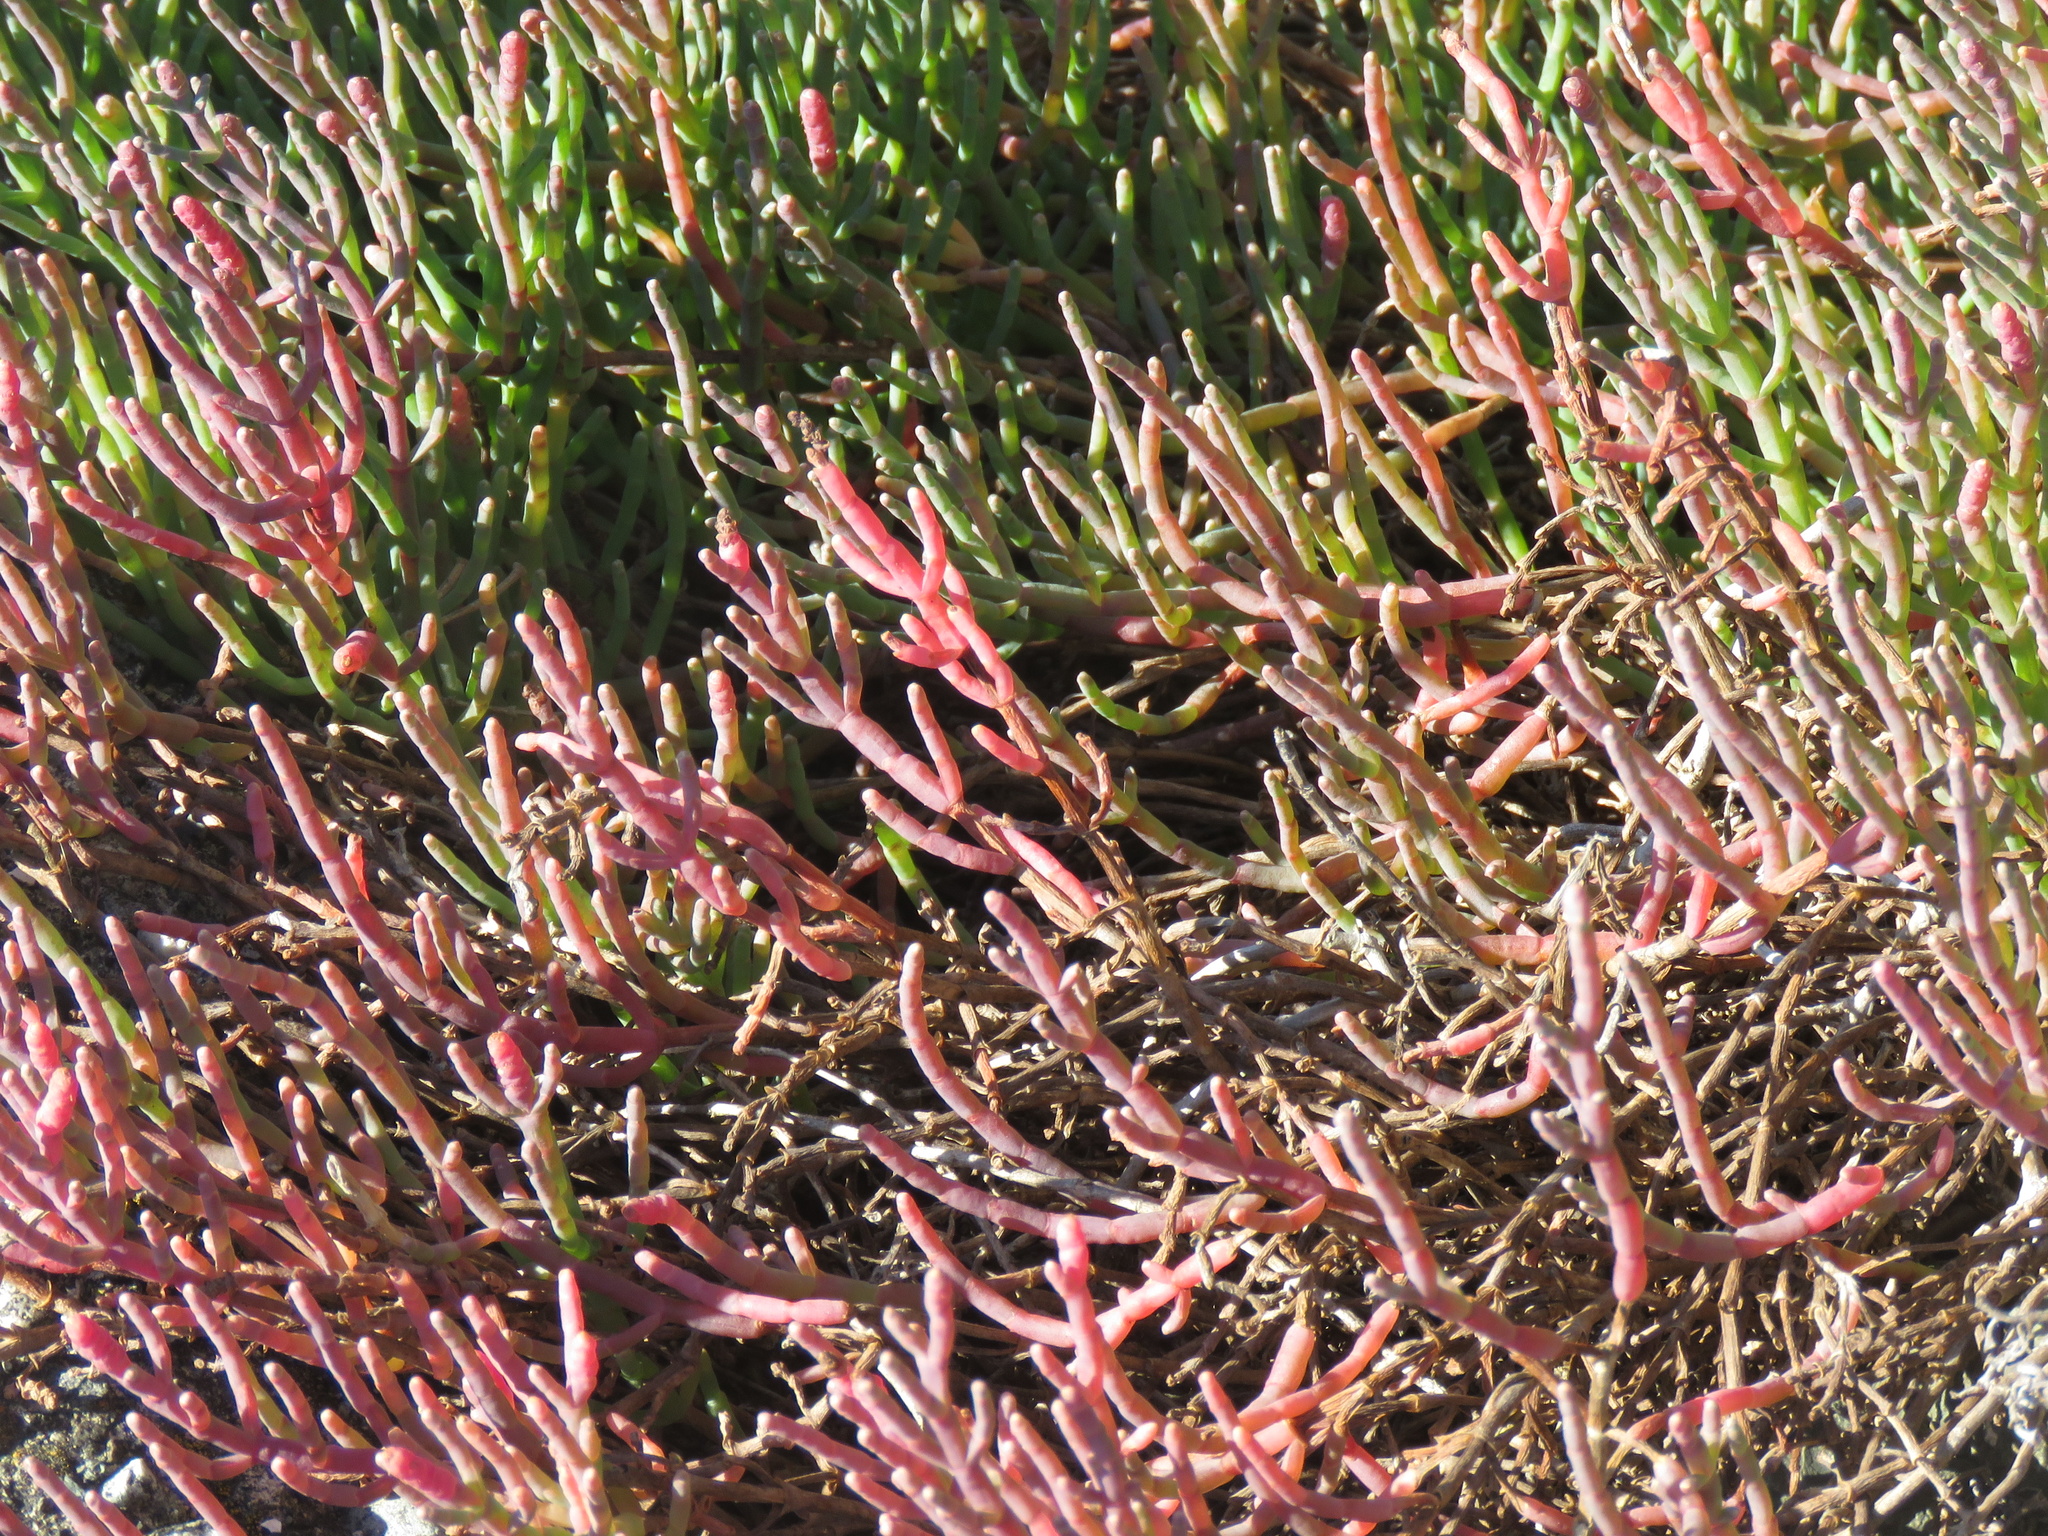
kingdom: Plantae
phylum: Tracheophyta
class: Magnoliopsida
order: Caryophyllales
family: Amaranthaceae
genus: Salicornia
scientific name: Salicornia pacifica
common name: Pacific glasswort
